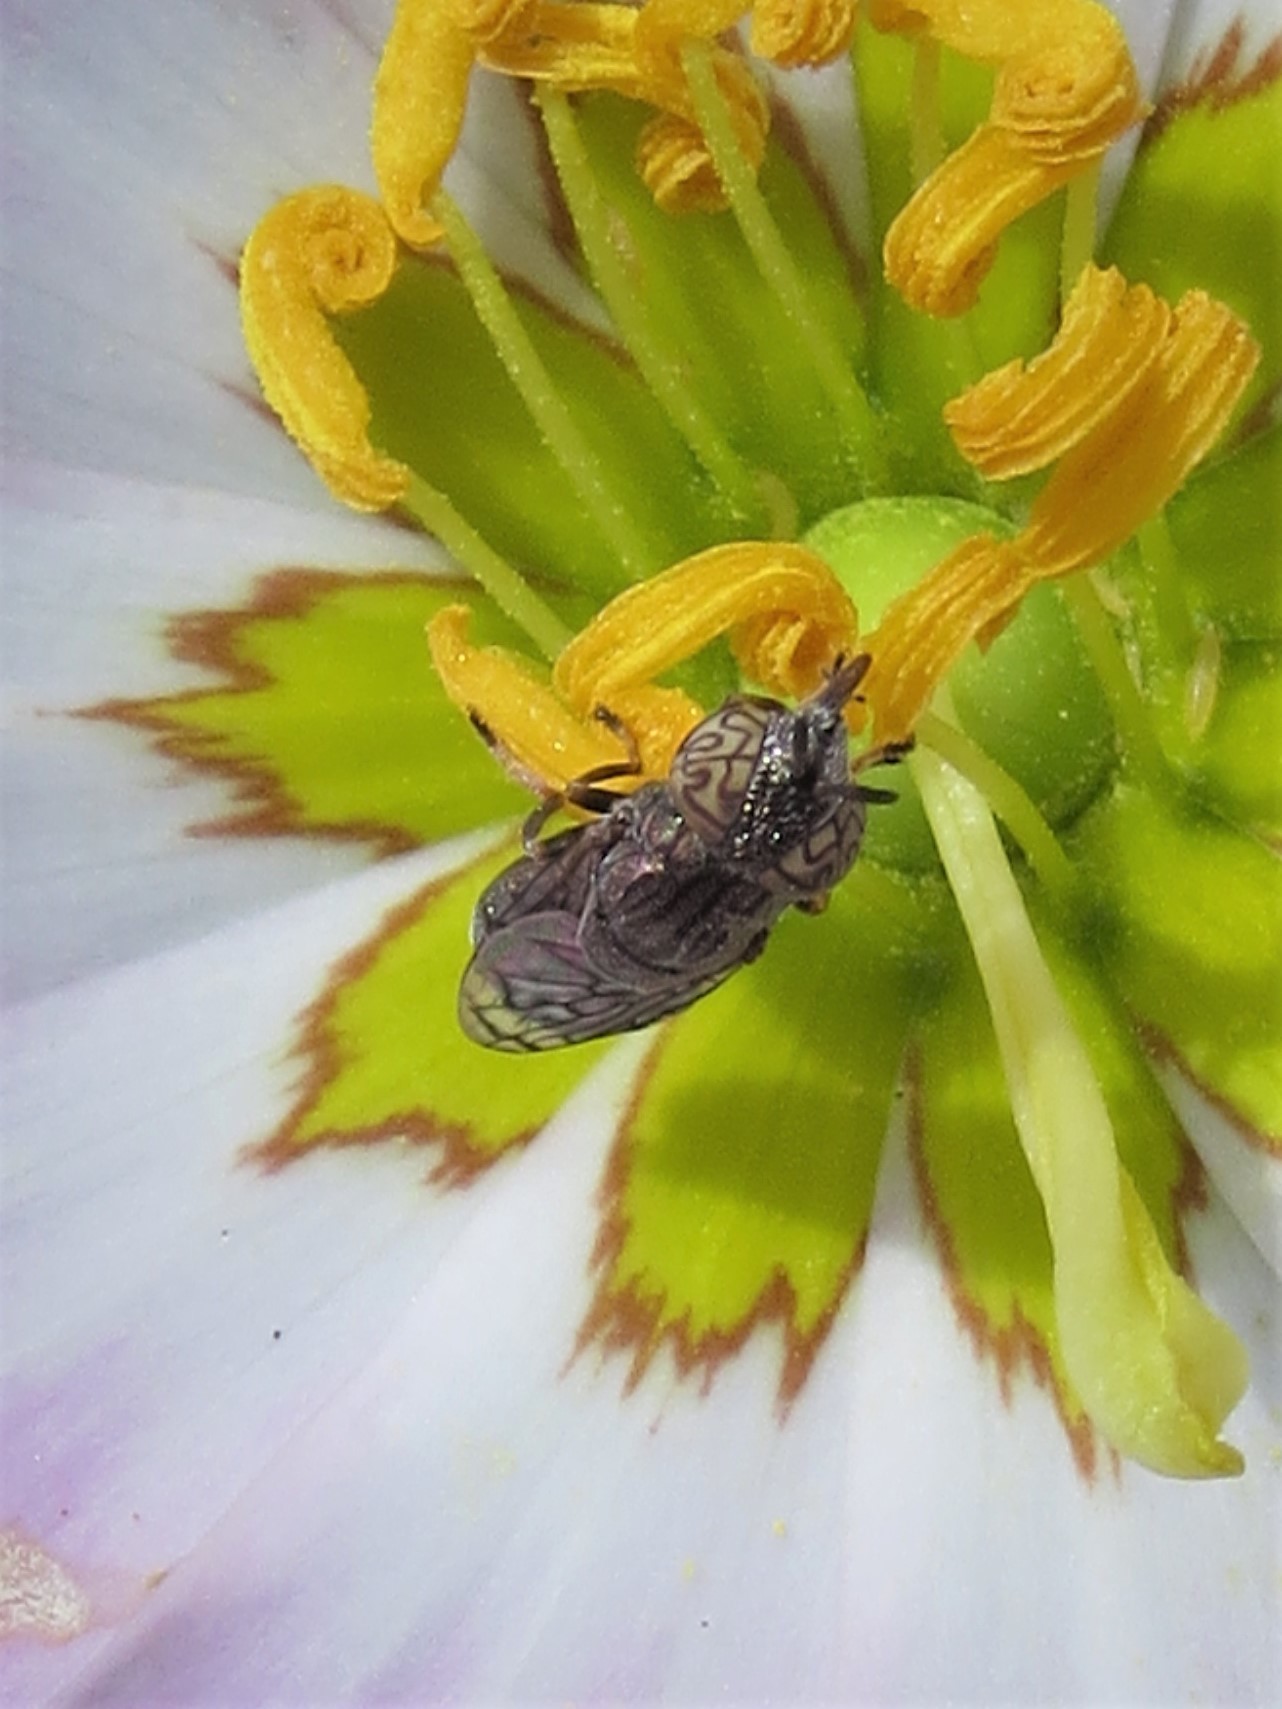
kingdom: Animalia
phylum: Arthropoda
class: Insecta
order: Diptera
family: Syrphidae
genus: Orthonevra
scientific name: Orthonevra nitida
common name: Wavy mucksucker
